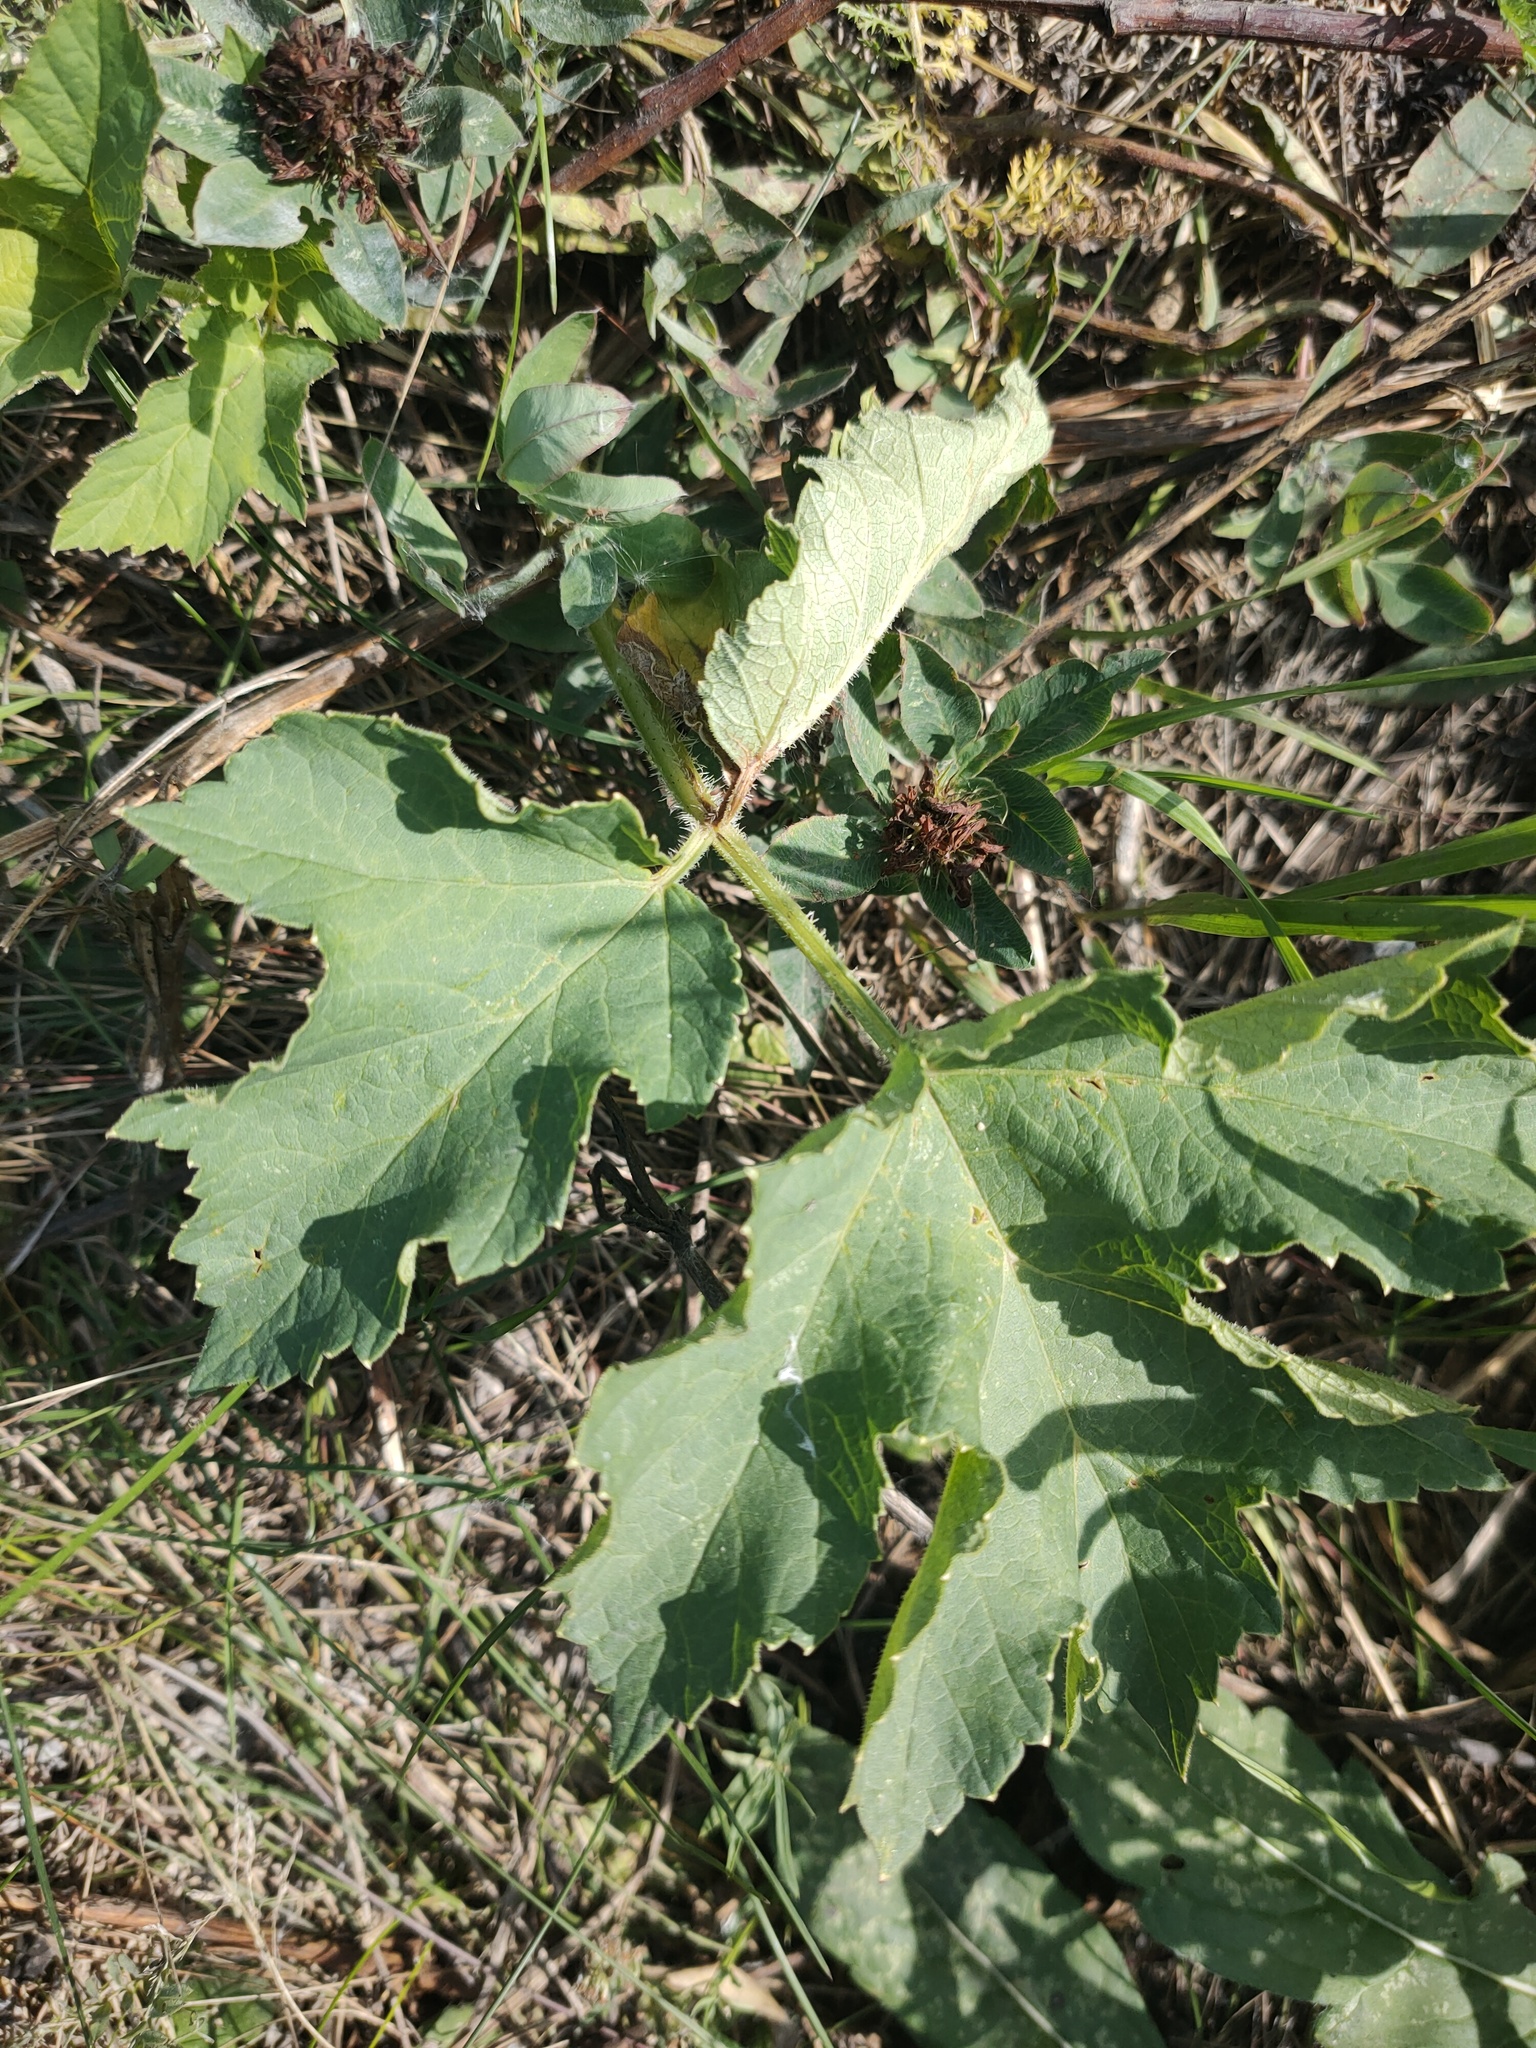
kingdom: Plantae
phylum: Tracheophyta
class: Magnoliopsida
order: Apiales
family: Apiaceae
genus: Heracleum
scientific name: Heracleum sphondylium
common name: Hogweed
